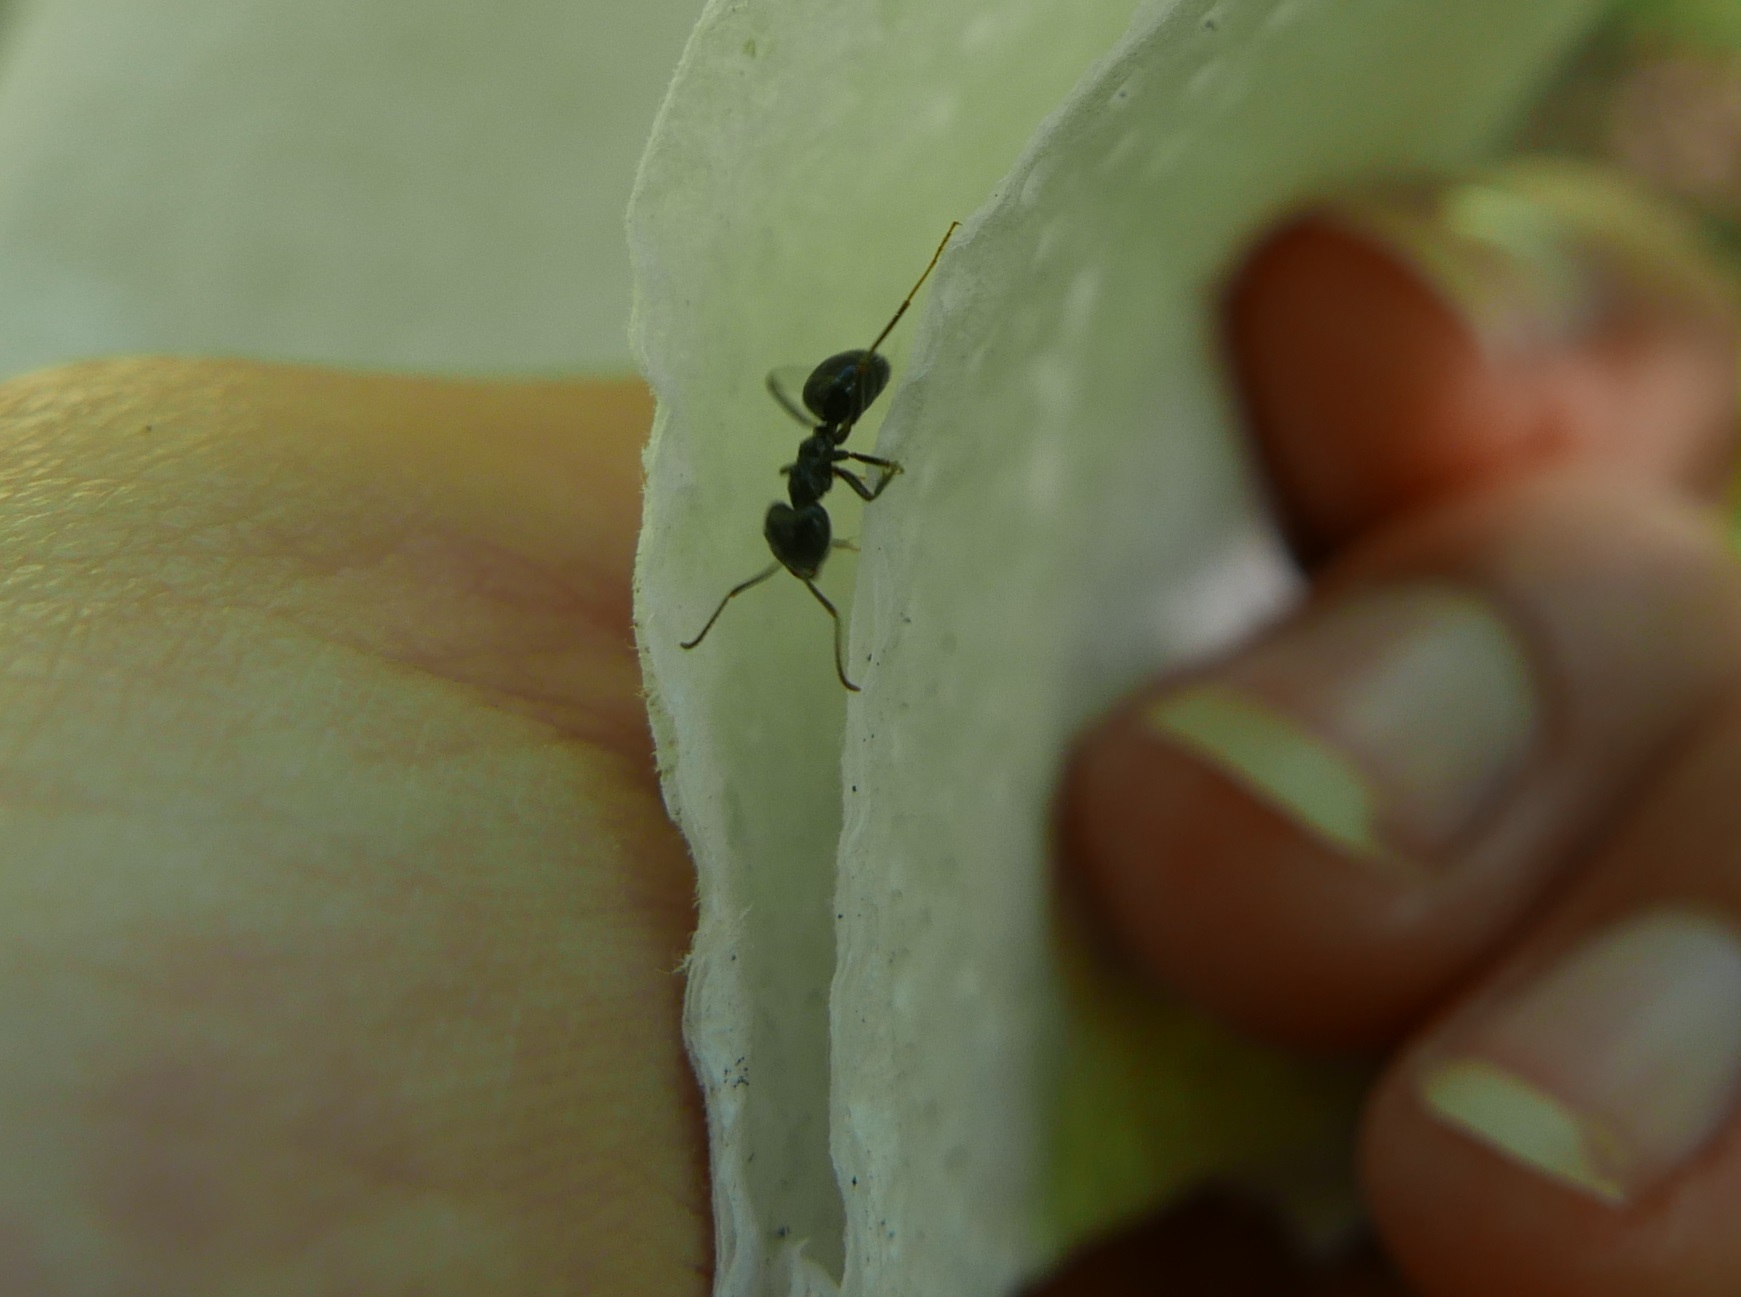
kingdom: Animalia
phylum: Arthropoda
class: Insecta
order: Hymenoptera
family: Formicidae
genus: Lasius
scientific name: Lasius fuliginosus
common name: Jet ant
